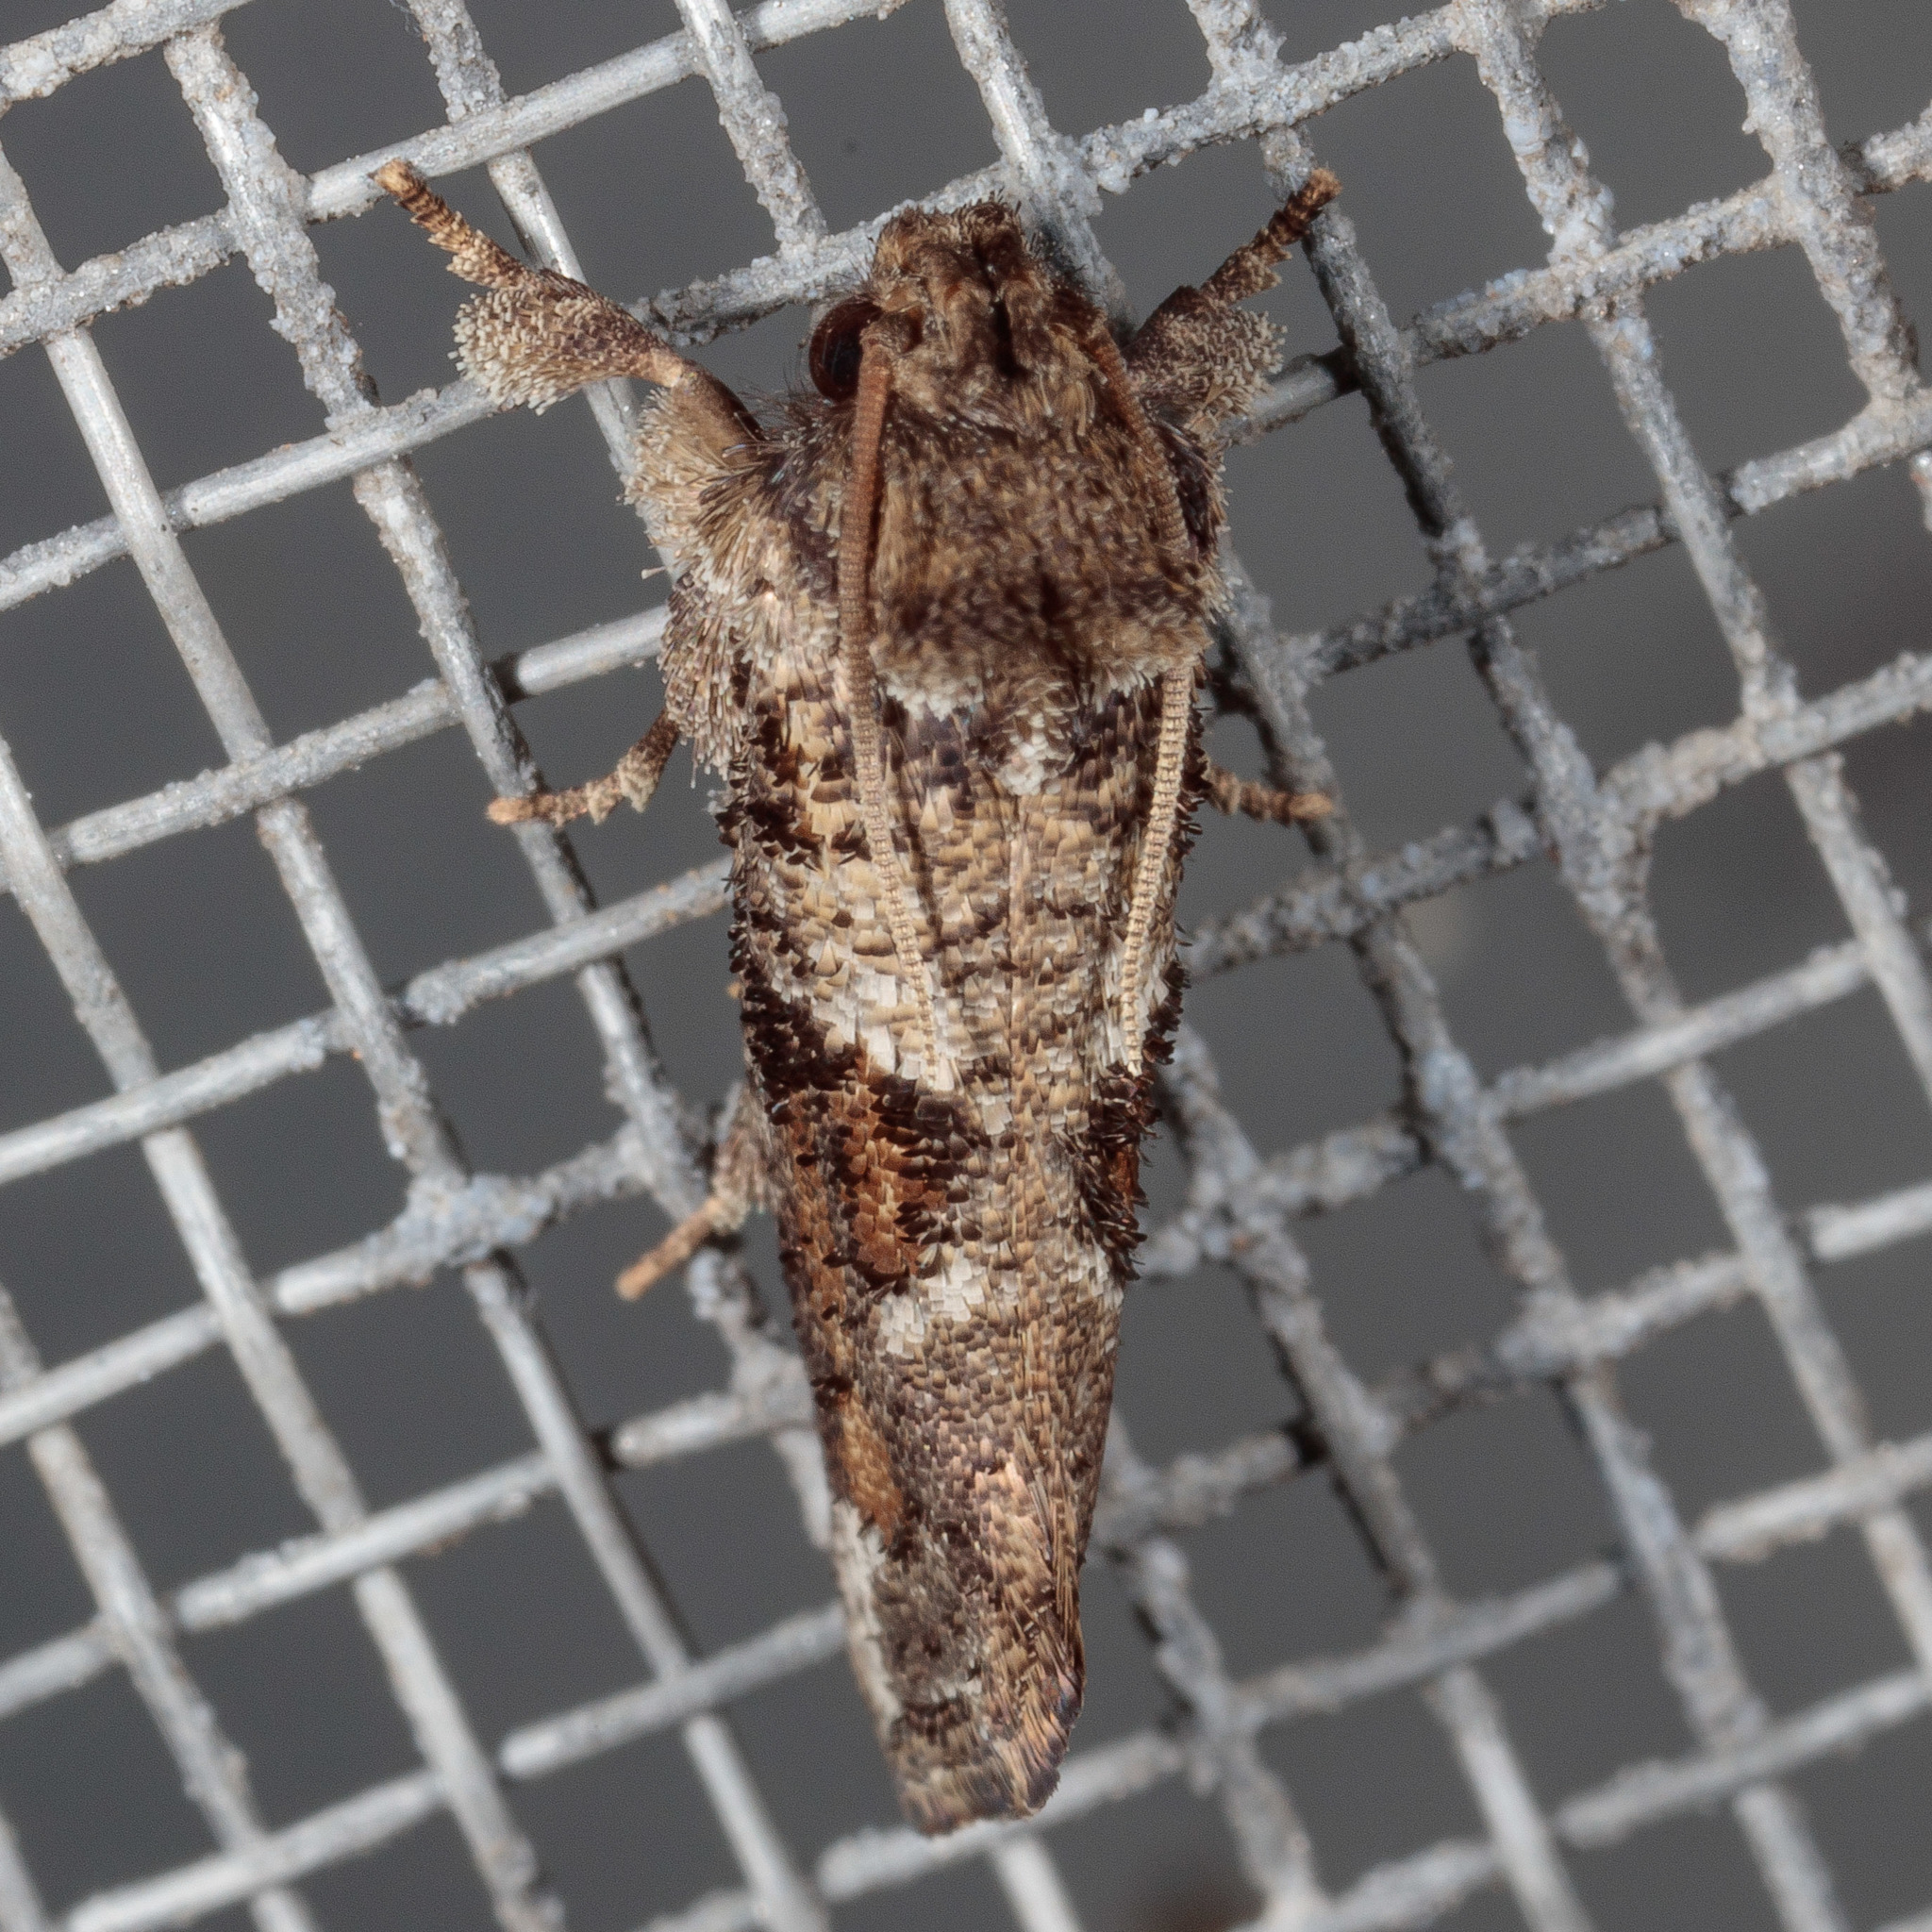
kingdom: Animalia
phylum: Arthropoda
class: Insecta
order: Lepidoptera
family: Tineidae
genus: Acrolophus
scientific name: Acrolophus piger
